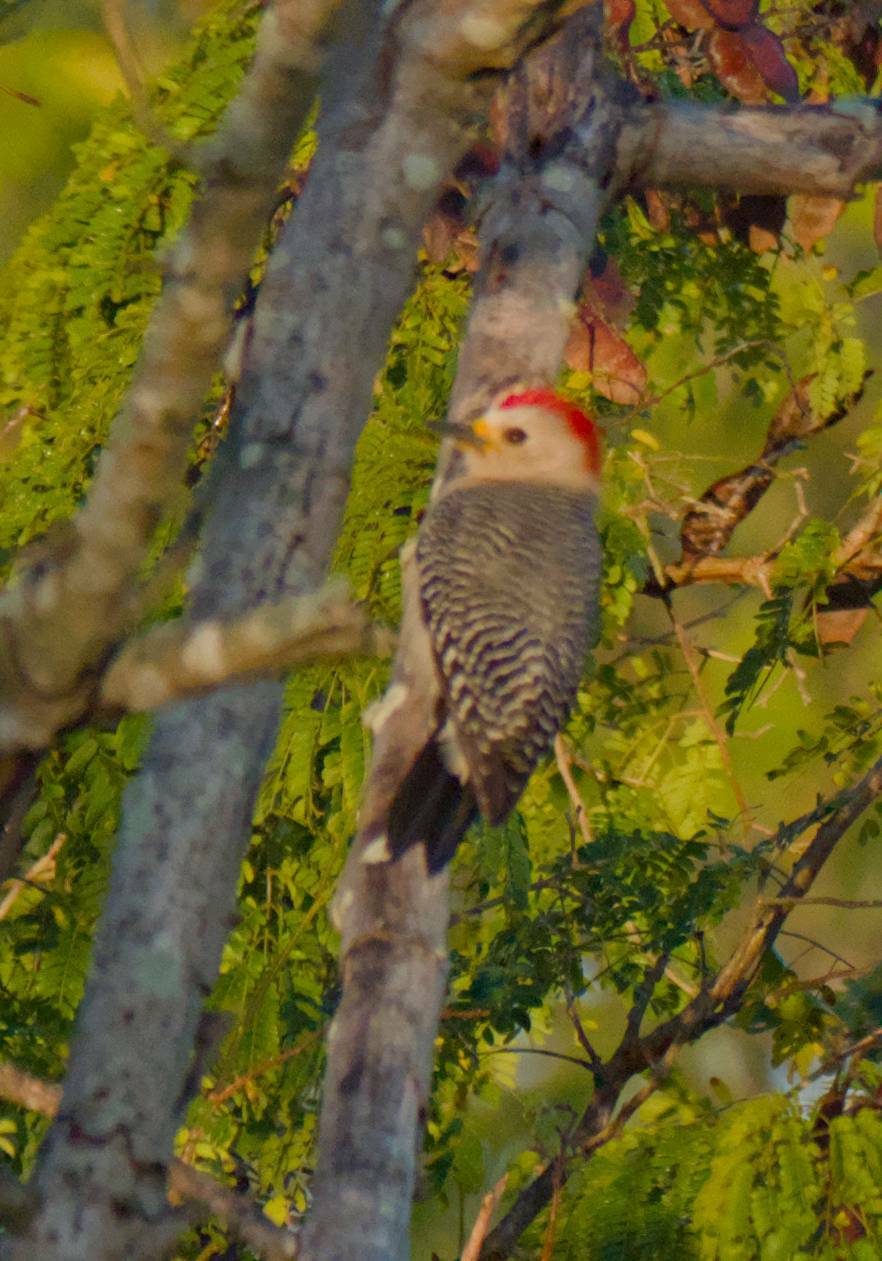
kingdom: Animalia
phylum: Chordata
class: Aves
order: Piciformes
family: Picidae
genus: Melanerpes
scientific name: Melanerpes pygmaeus
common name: Yucatan woodpecker
